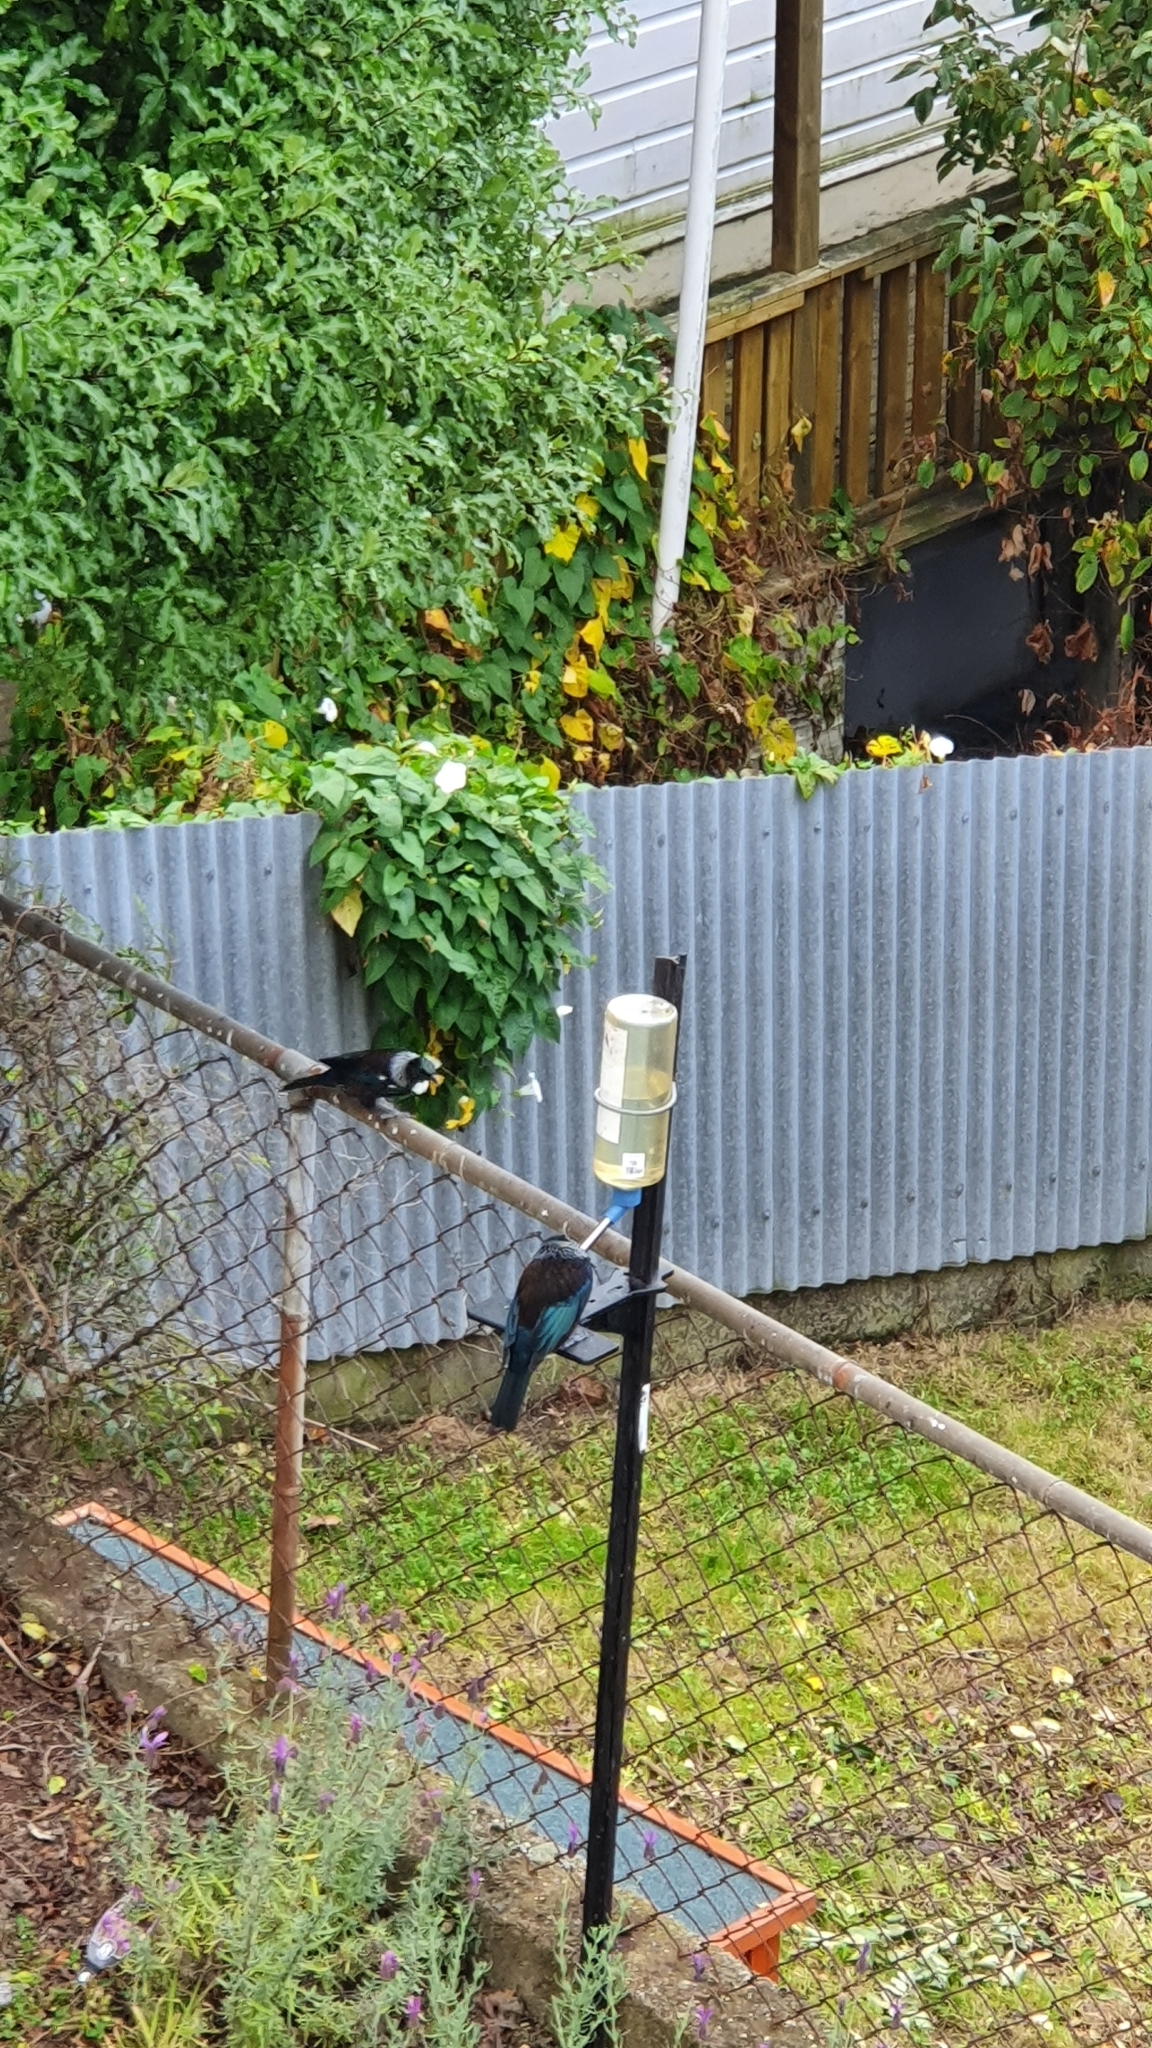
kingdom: Animalia
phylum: Chordata
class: Aves
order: Passeriformes
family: Meliphagidae
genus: Prosthemadera
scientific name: Prosthemadera novaeseelandiae
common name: Tui
